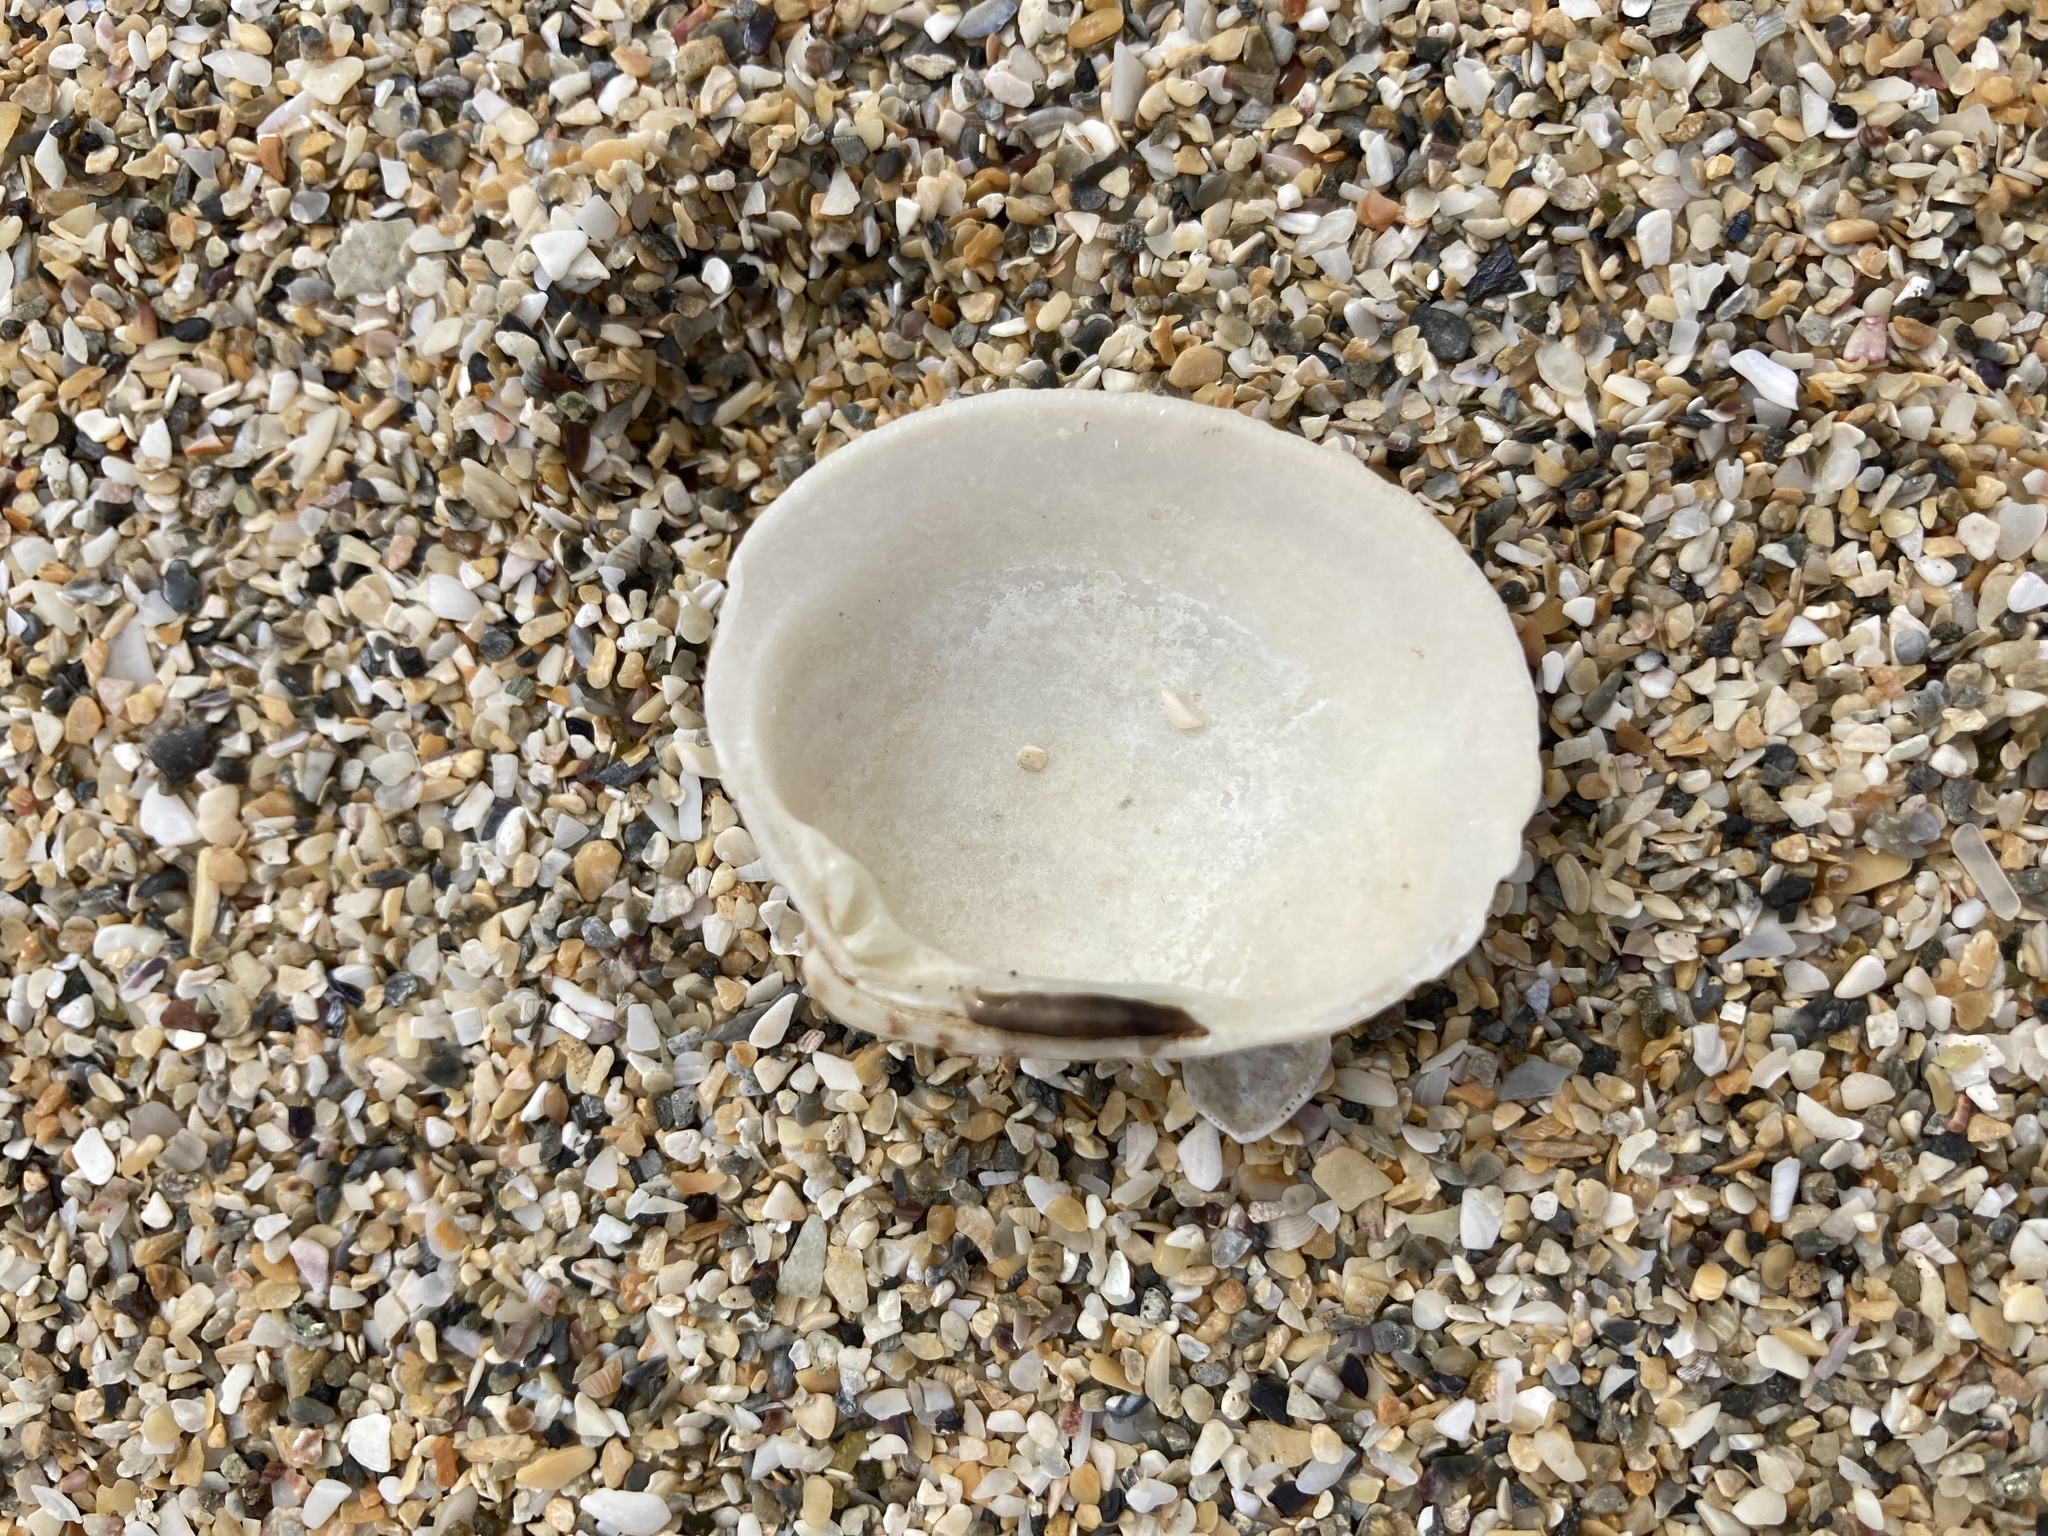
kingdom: Animalia
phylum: Mollusca
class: Bivalvia
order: Venerida
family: Veneridae
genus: Dosina
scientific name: Dosina mactracea
